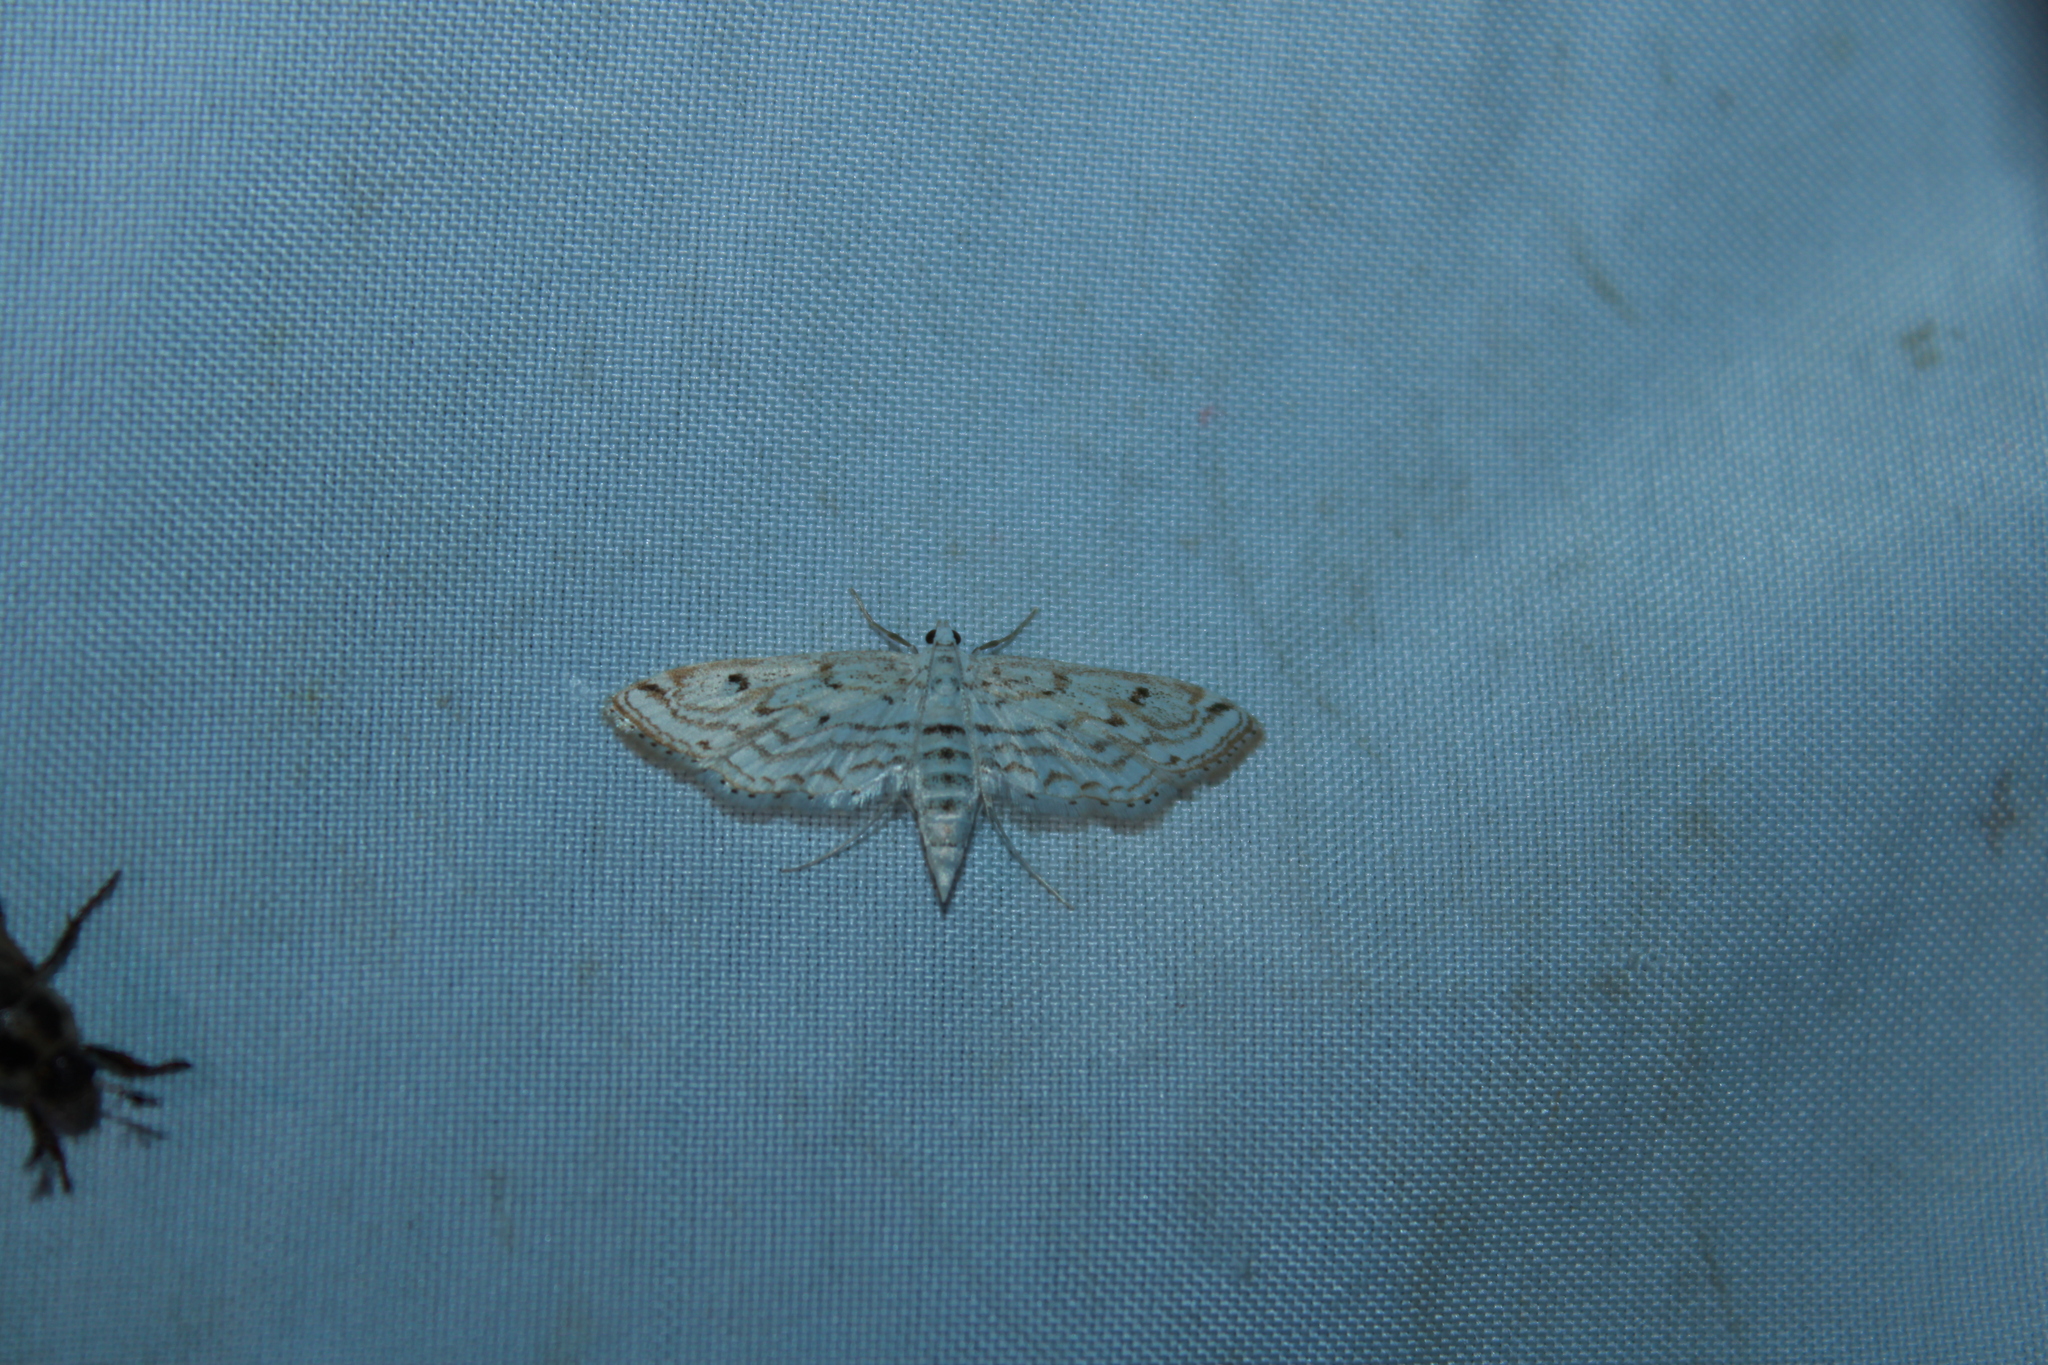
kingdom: Animalia
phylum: Arthropoda
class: Insecta
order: Lepidoptera
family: Crambidae
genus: Parapoynx
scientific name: Parapoynx allionealis
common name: Bladderwort casemaker
